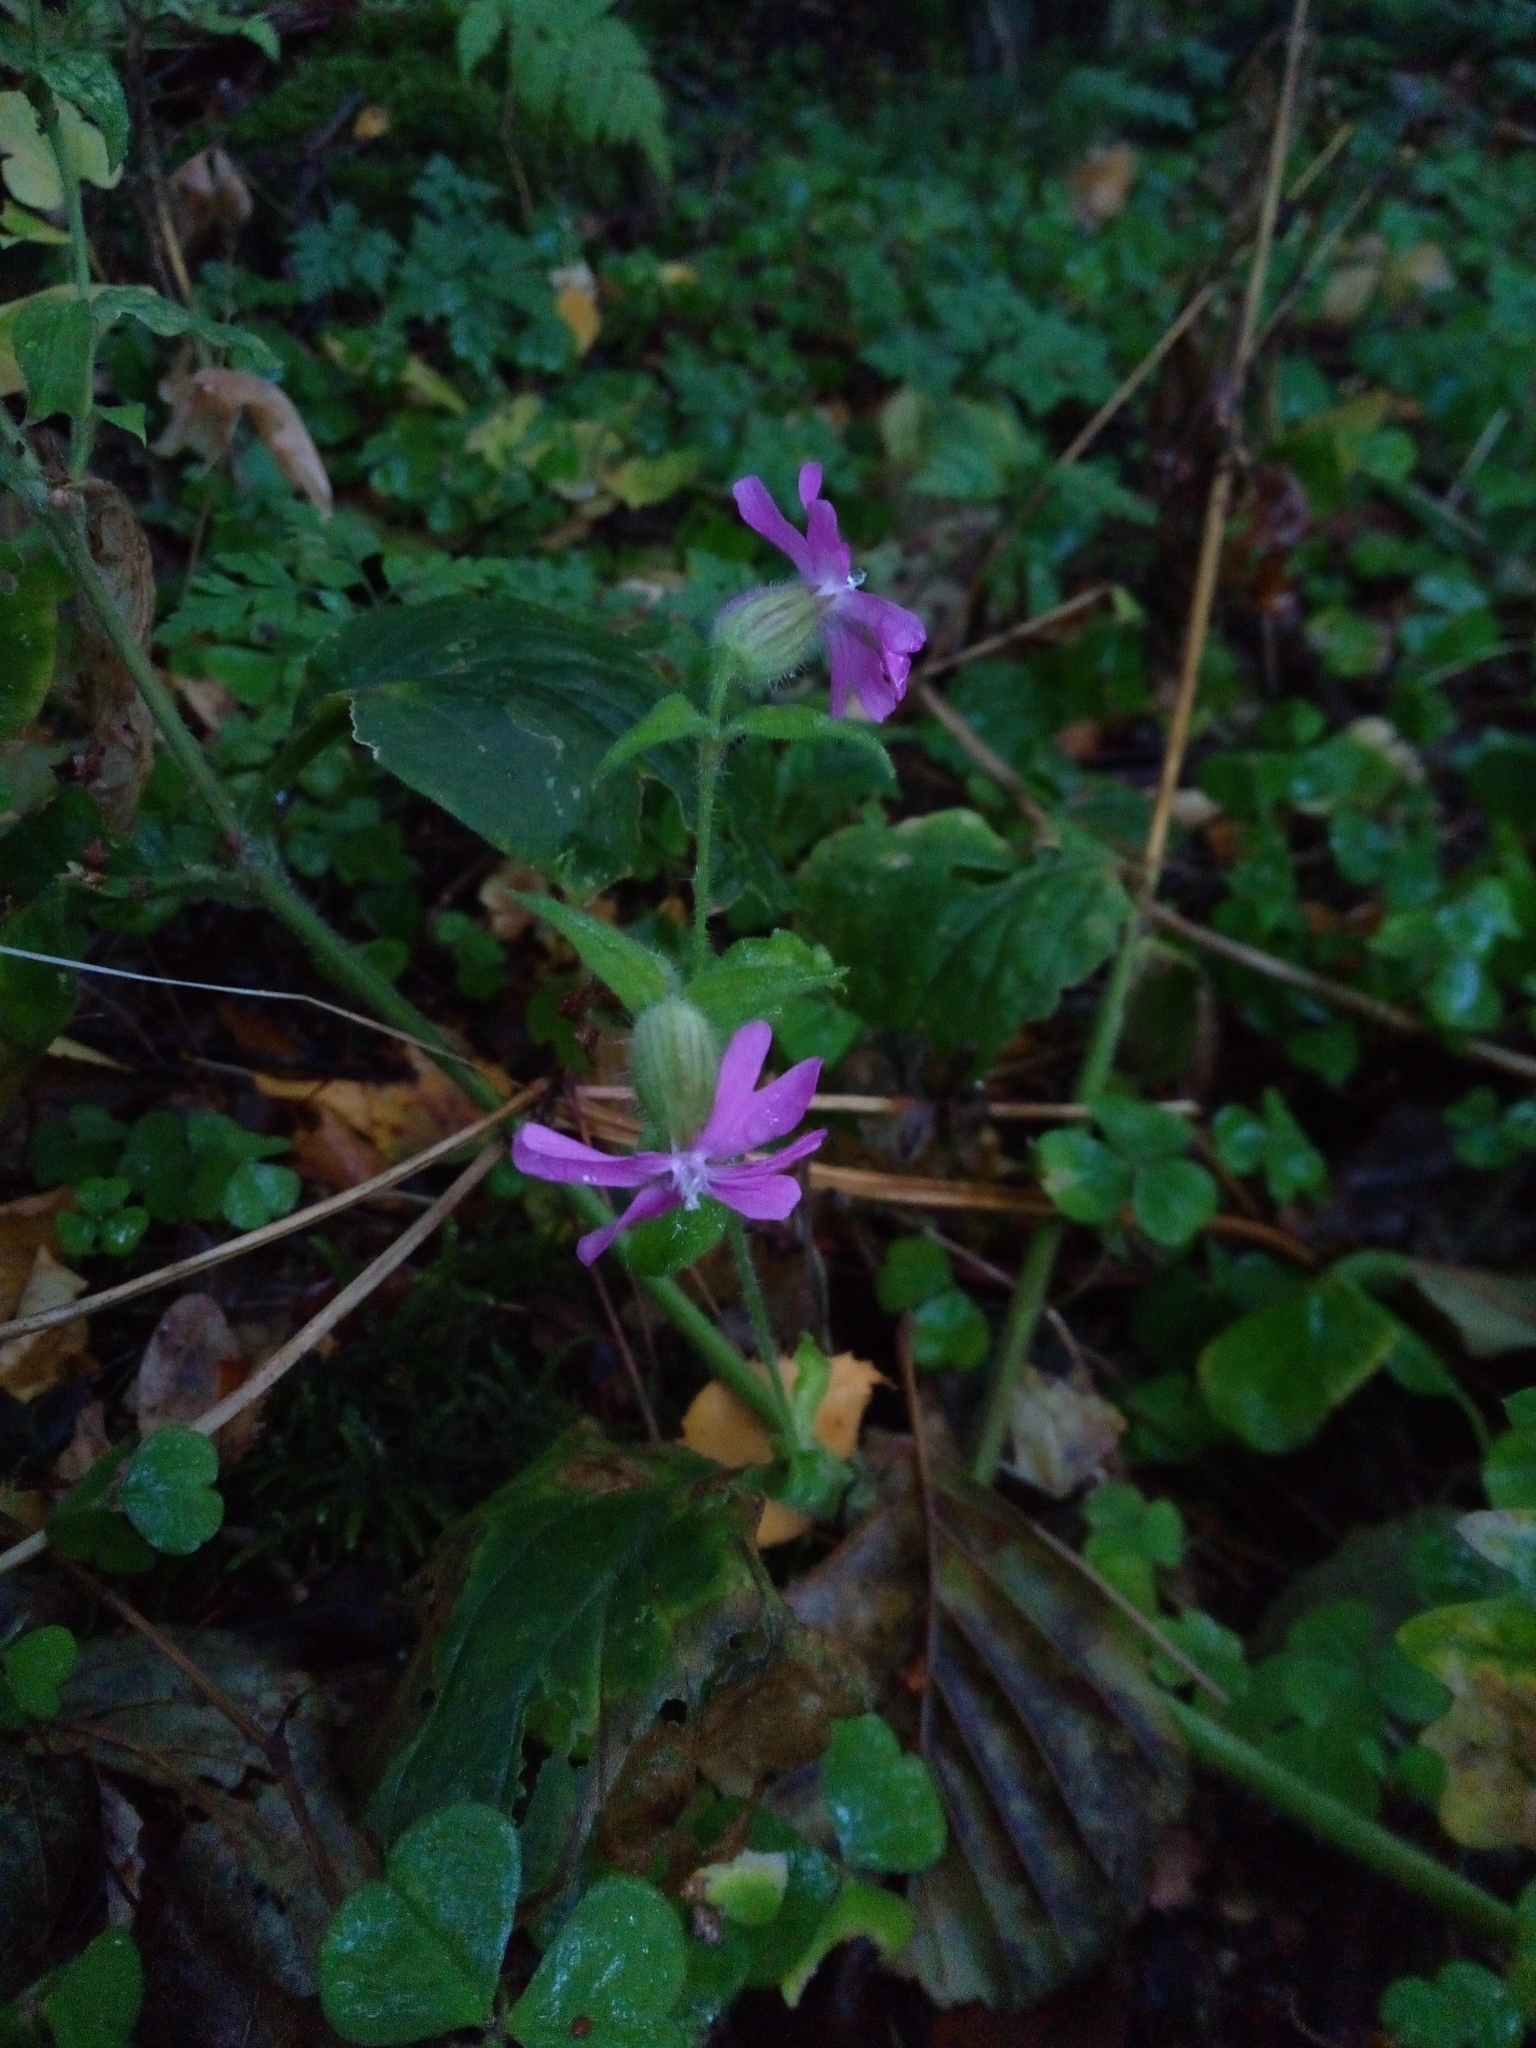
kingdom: Plantae
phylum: Tracheophyta
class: Magnoliopsida
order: Caryophyllales
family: Caryophyllaceae
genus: Silene
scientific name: Silene dioica
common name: Red campion
